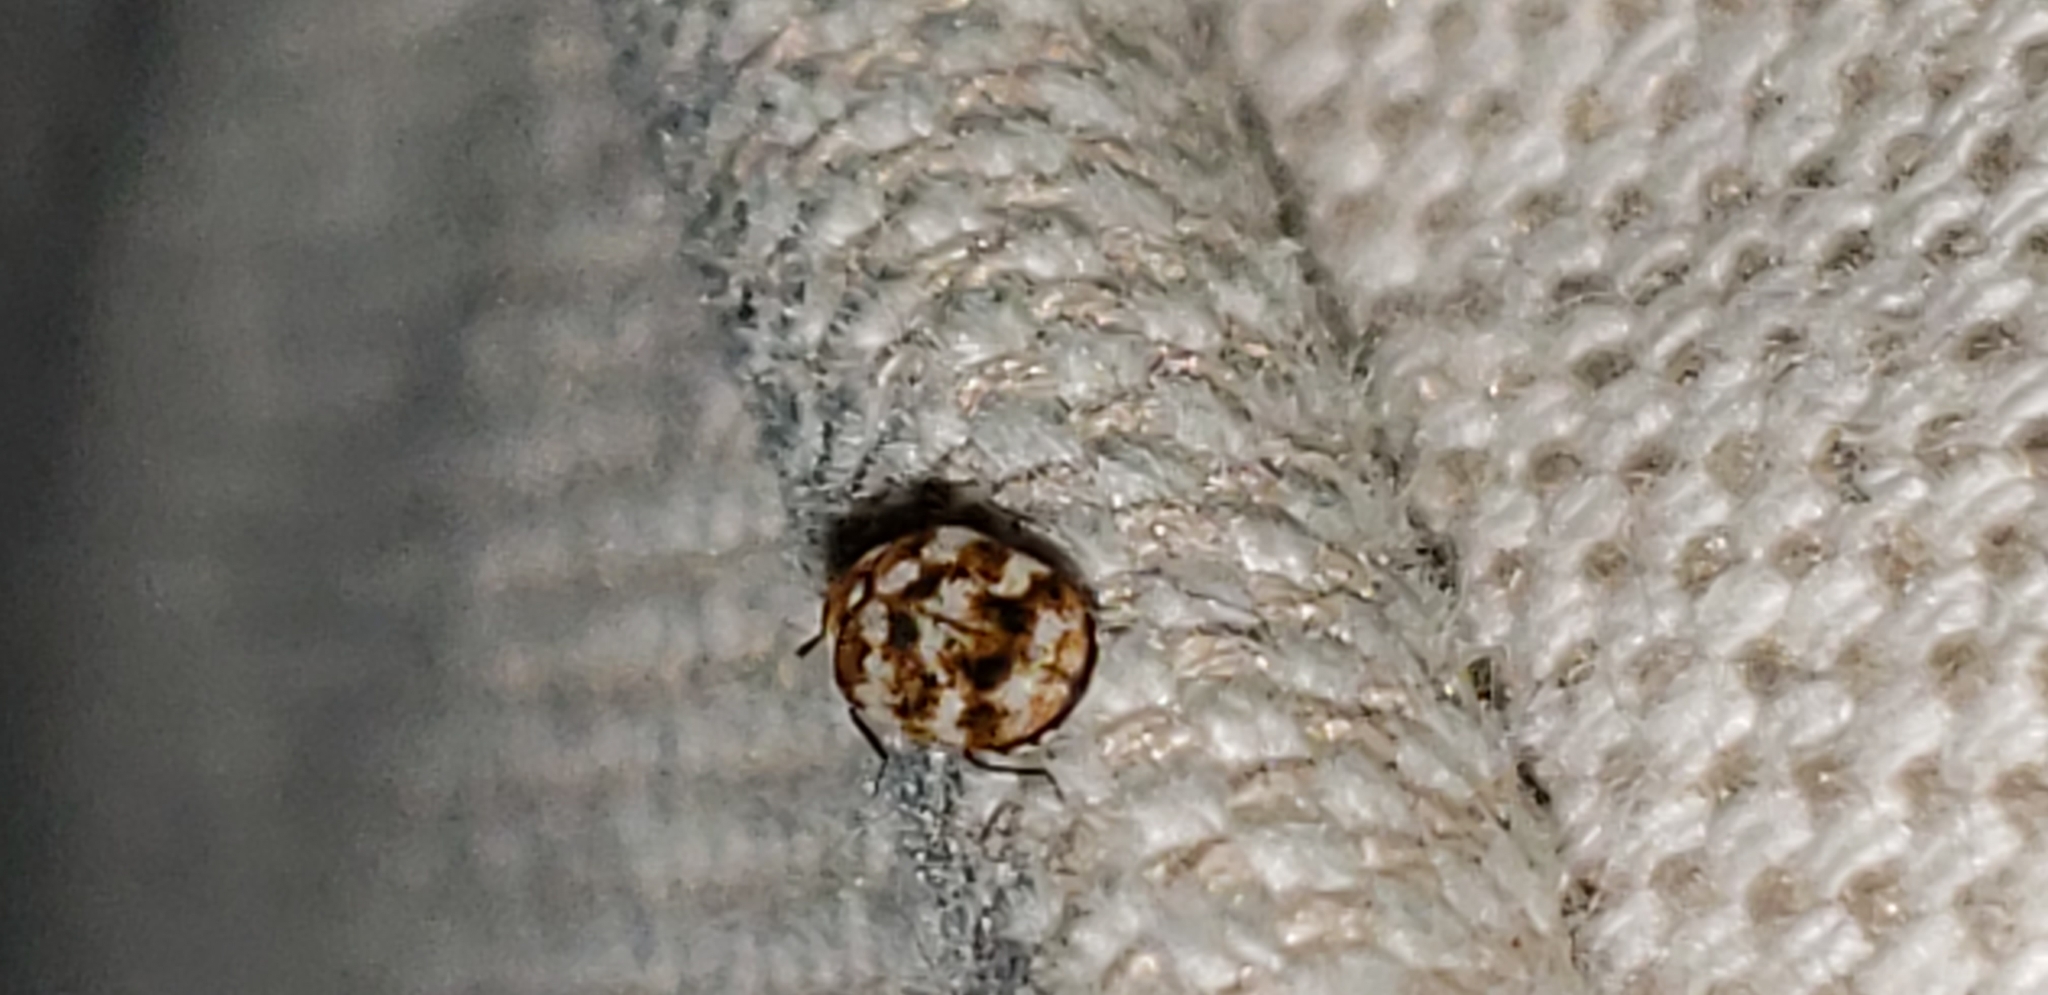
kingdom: Animalia
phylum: Arthropoda
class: Insecta
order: Coleoptera
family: Dermestidae
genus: Anthrenus
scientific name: Anthrenus verbasci
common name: Varied carpet beetle
